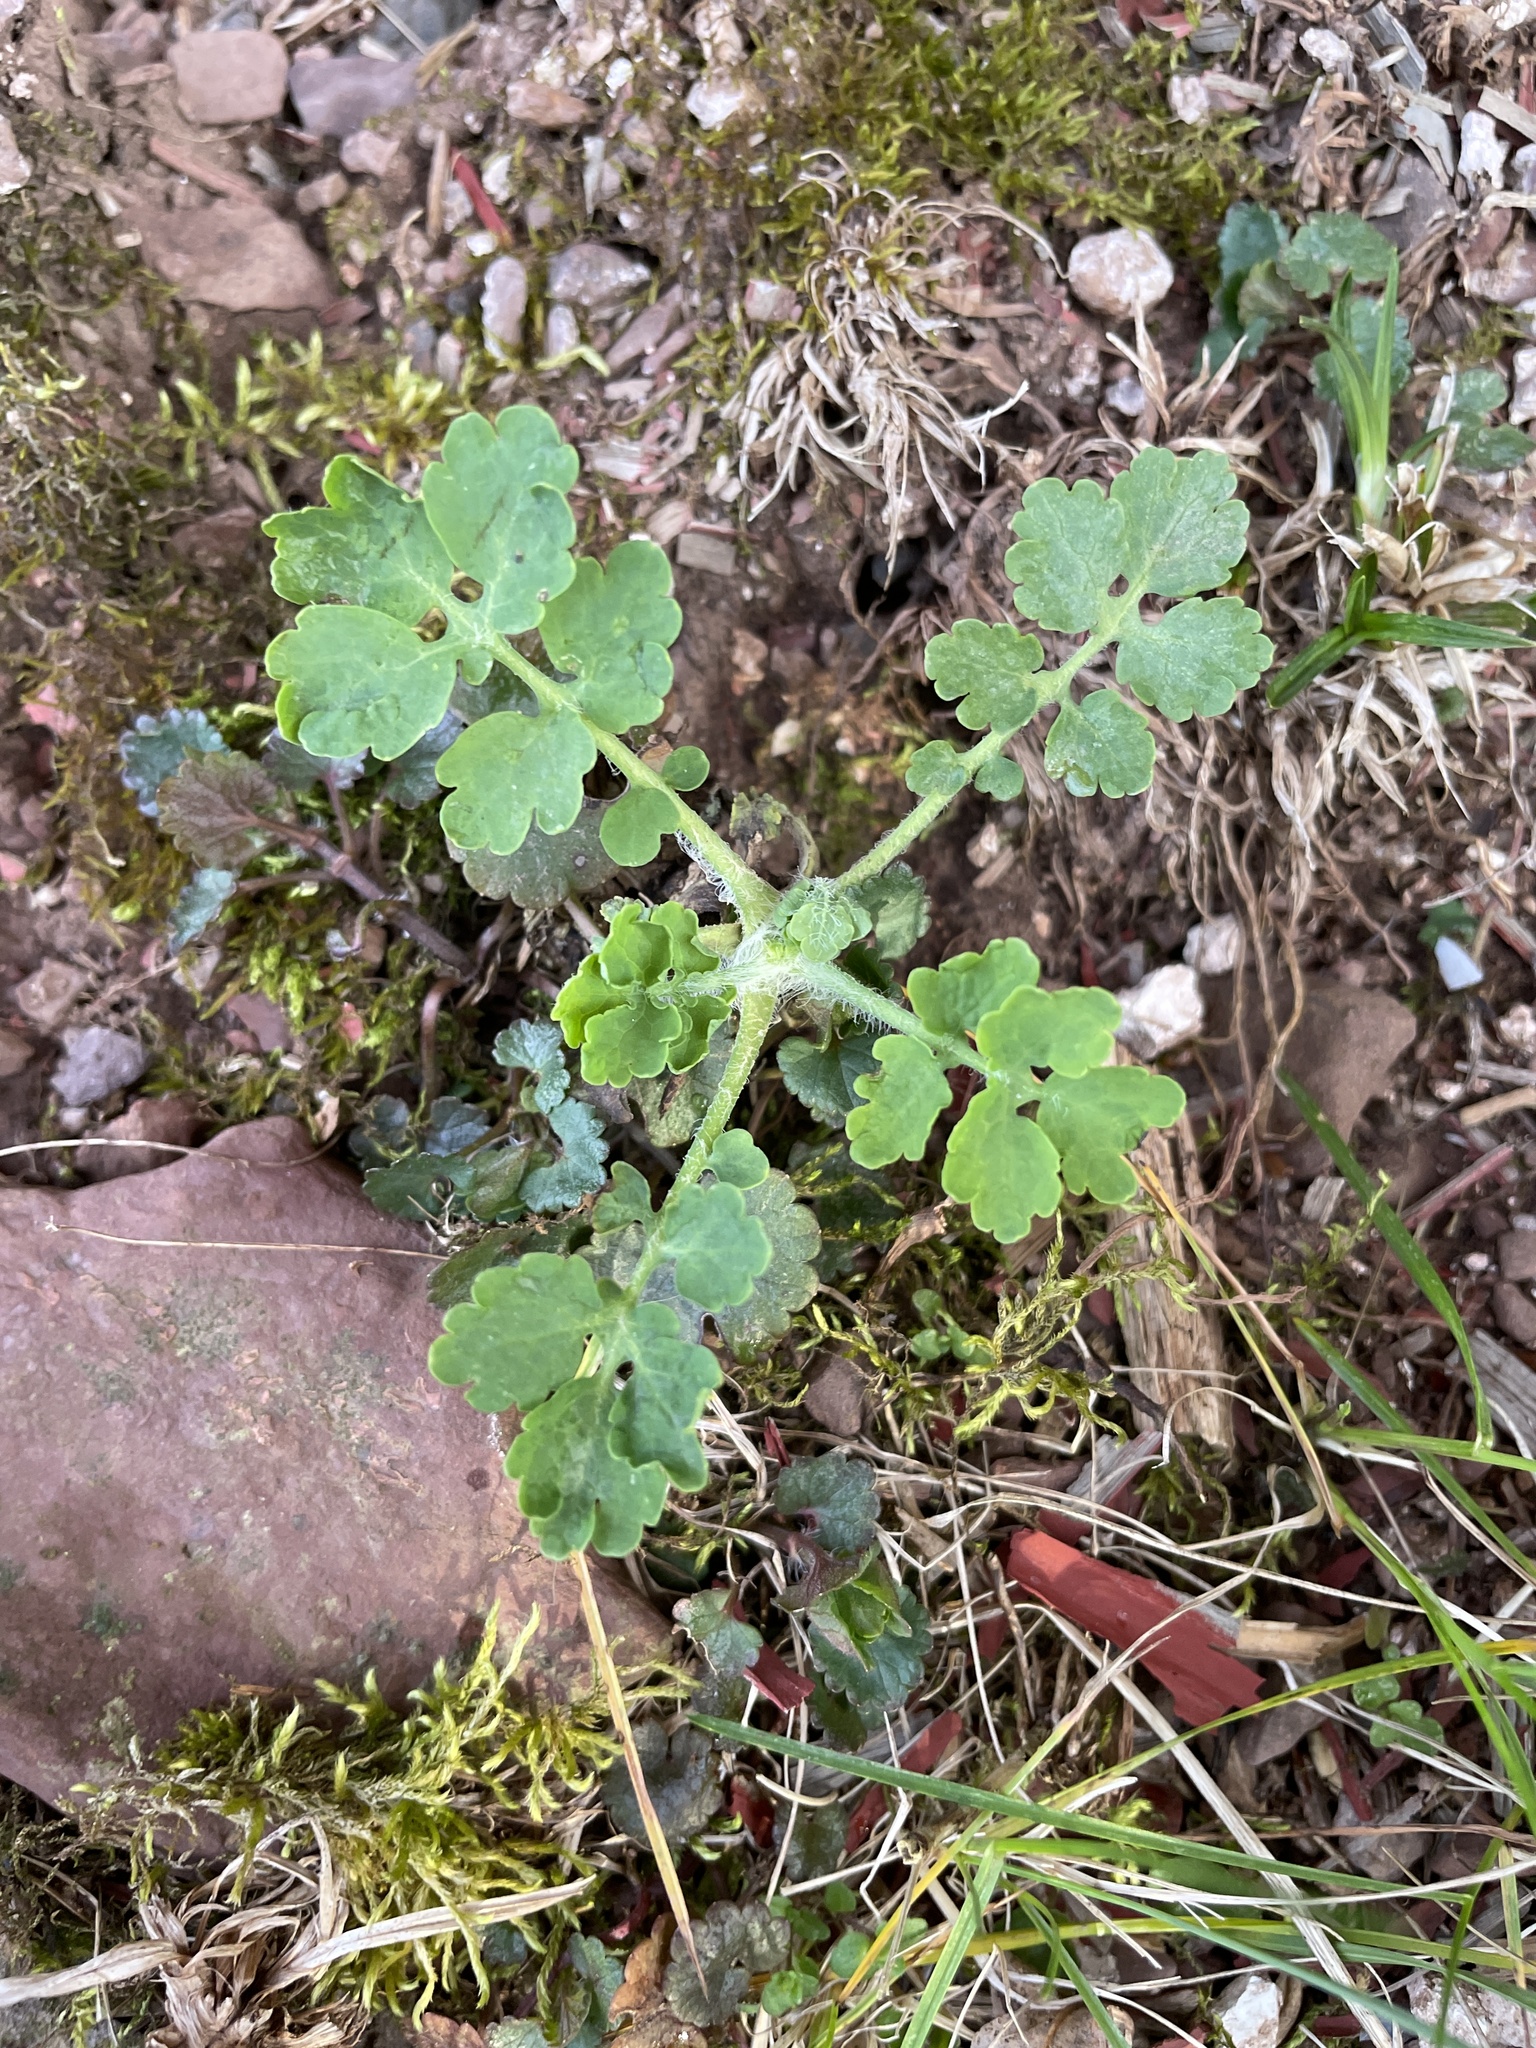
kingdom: Plantae
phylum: Tracheophyta
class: Magnoliopsida
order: Ranunculales
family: Papaveraceae
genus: Chelidonium
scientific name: Chelidonium majus
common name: Greater celandine
